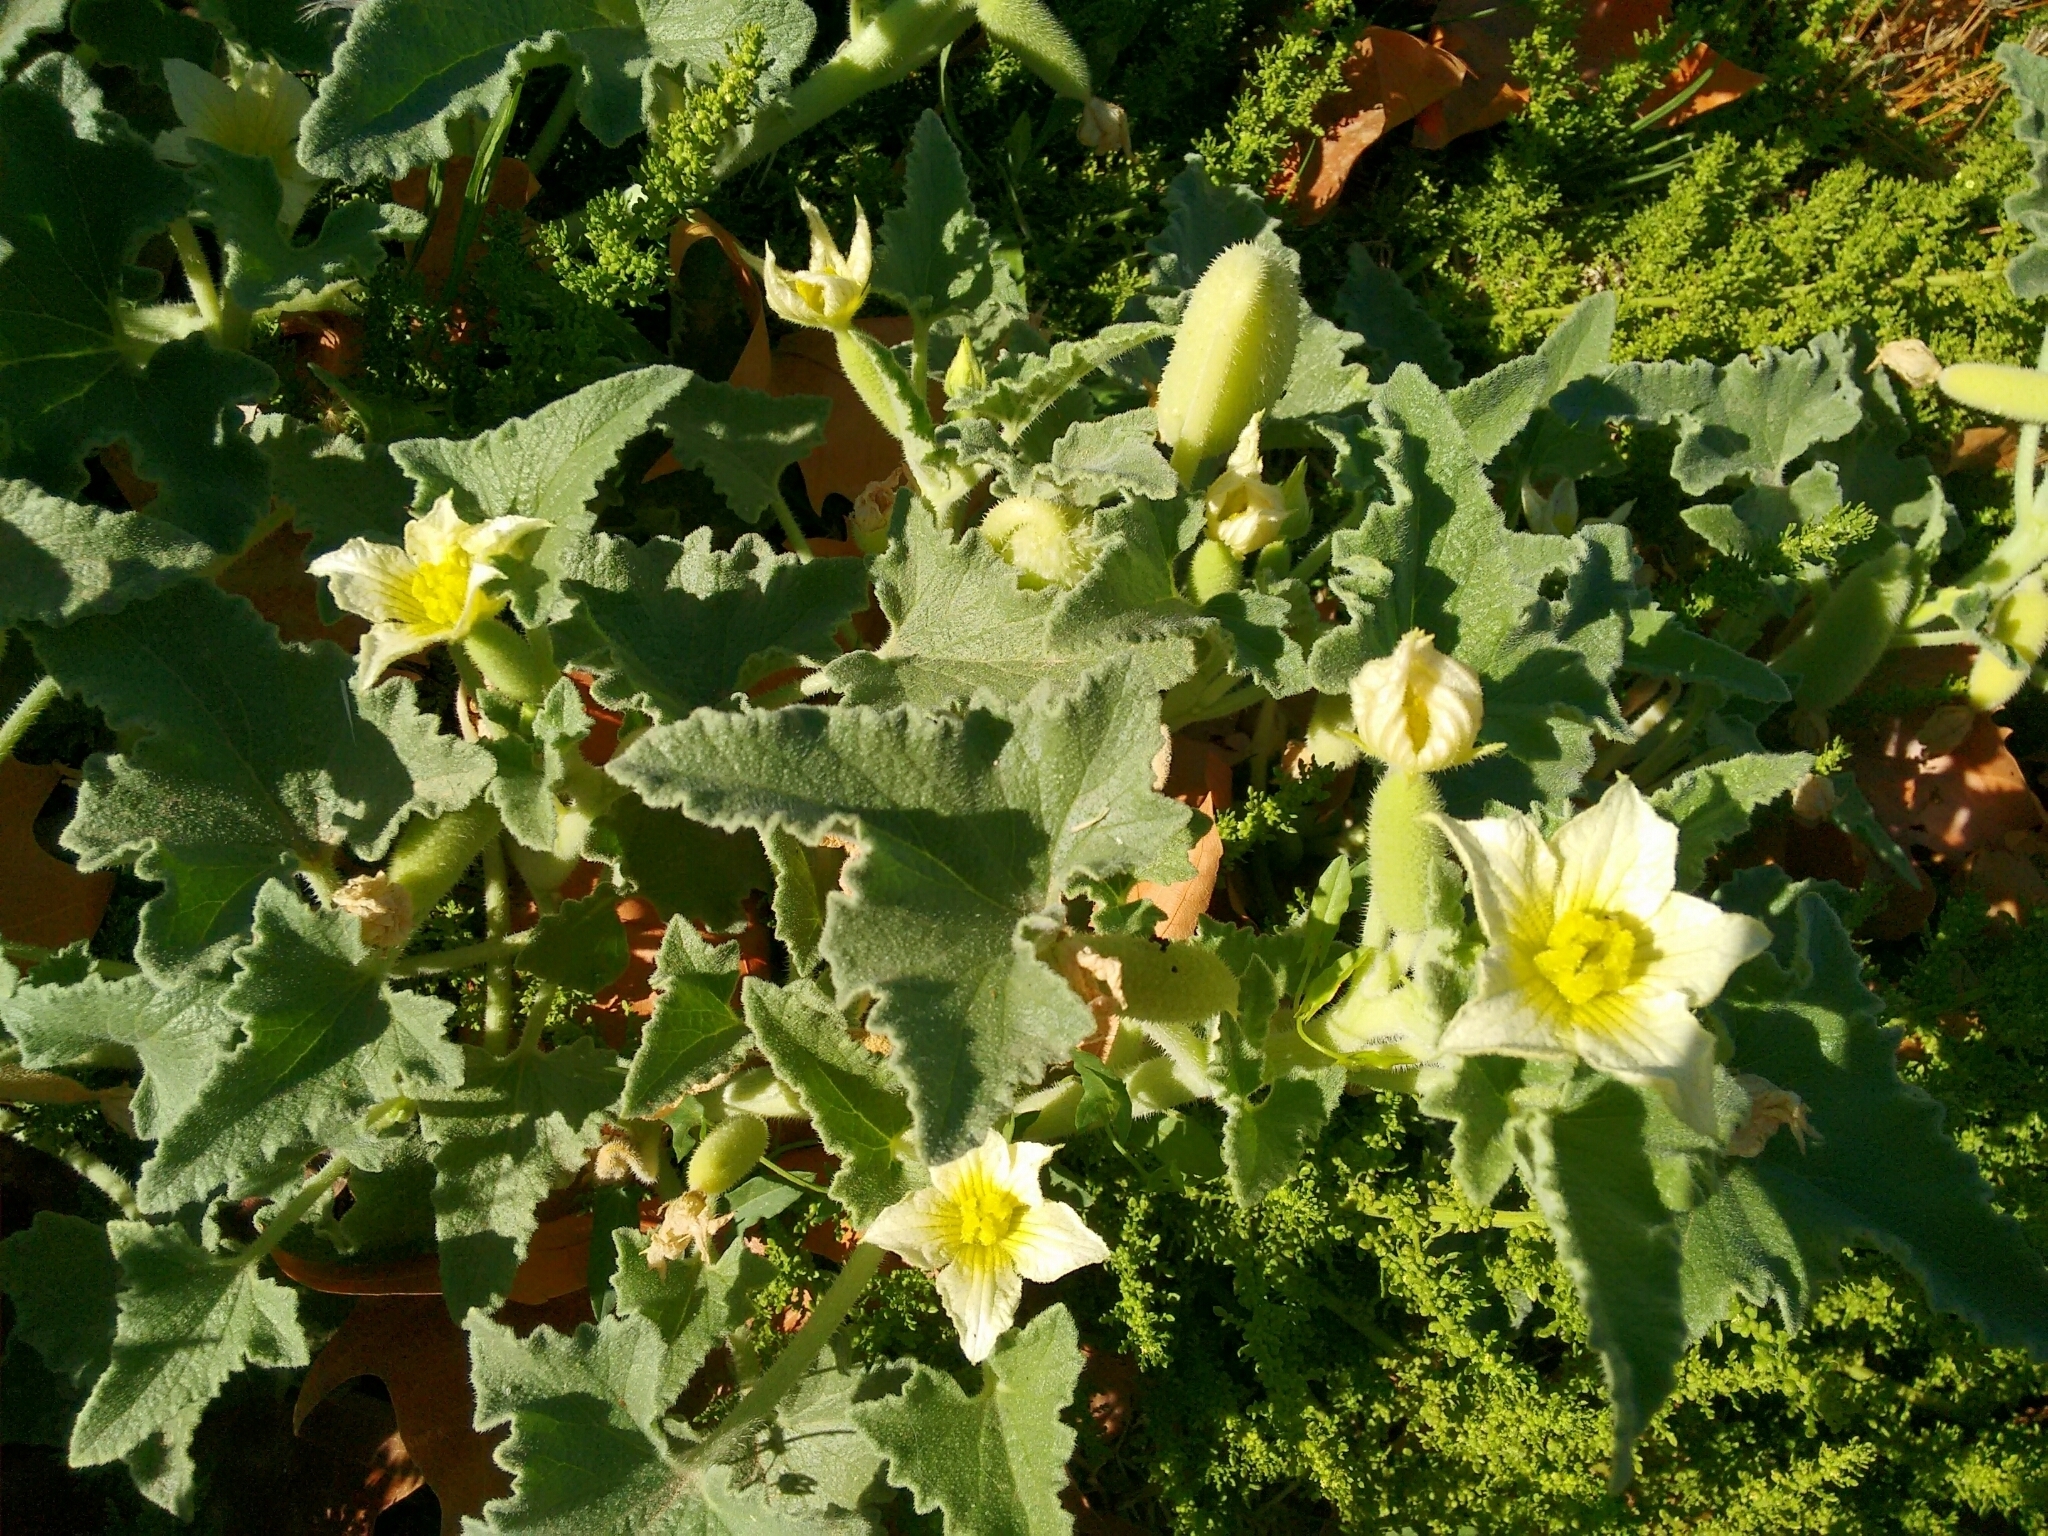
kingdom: Plantae
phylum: Tracheophyta
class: Magnoliopsida
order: Cucurbitales
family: Cucurbitaceae
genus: Ecballium
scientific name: Ecballium elaterium
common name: Squirting cucumber
